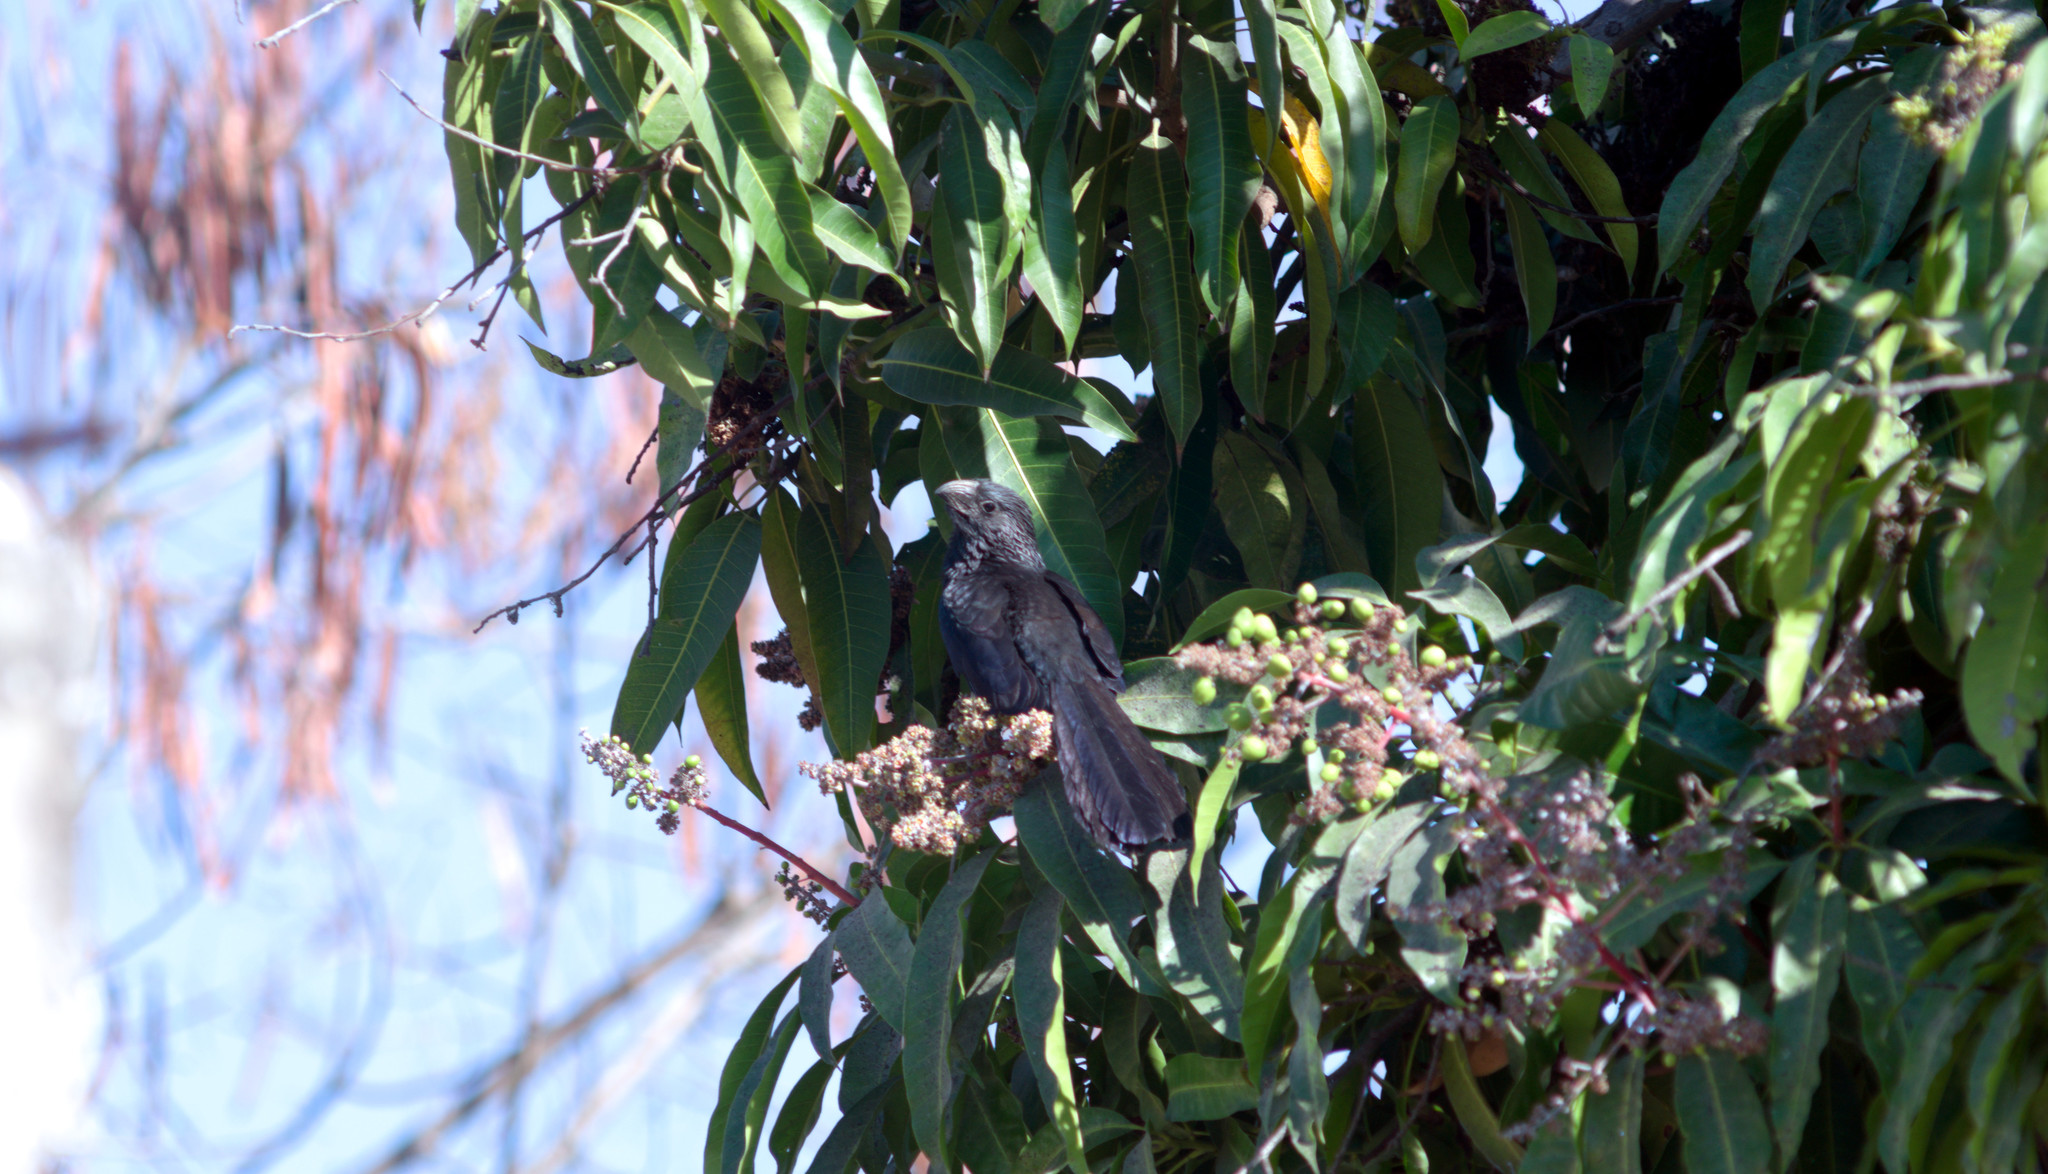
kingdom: Animalia
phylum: Chordata
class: Aves
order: Cuculiformes
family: Cuculidae
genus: Crotophaga
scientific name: Crotophaga sulcirostris
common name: Groove-billed ani
